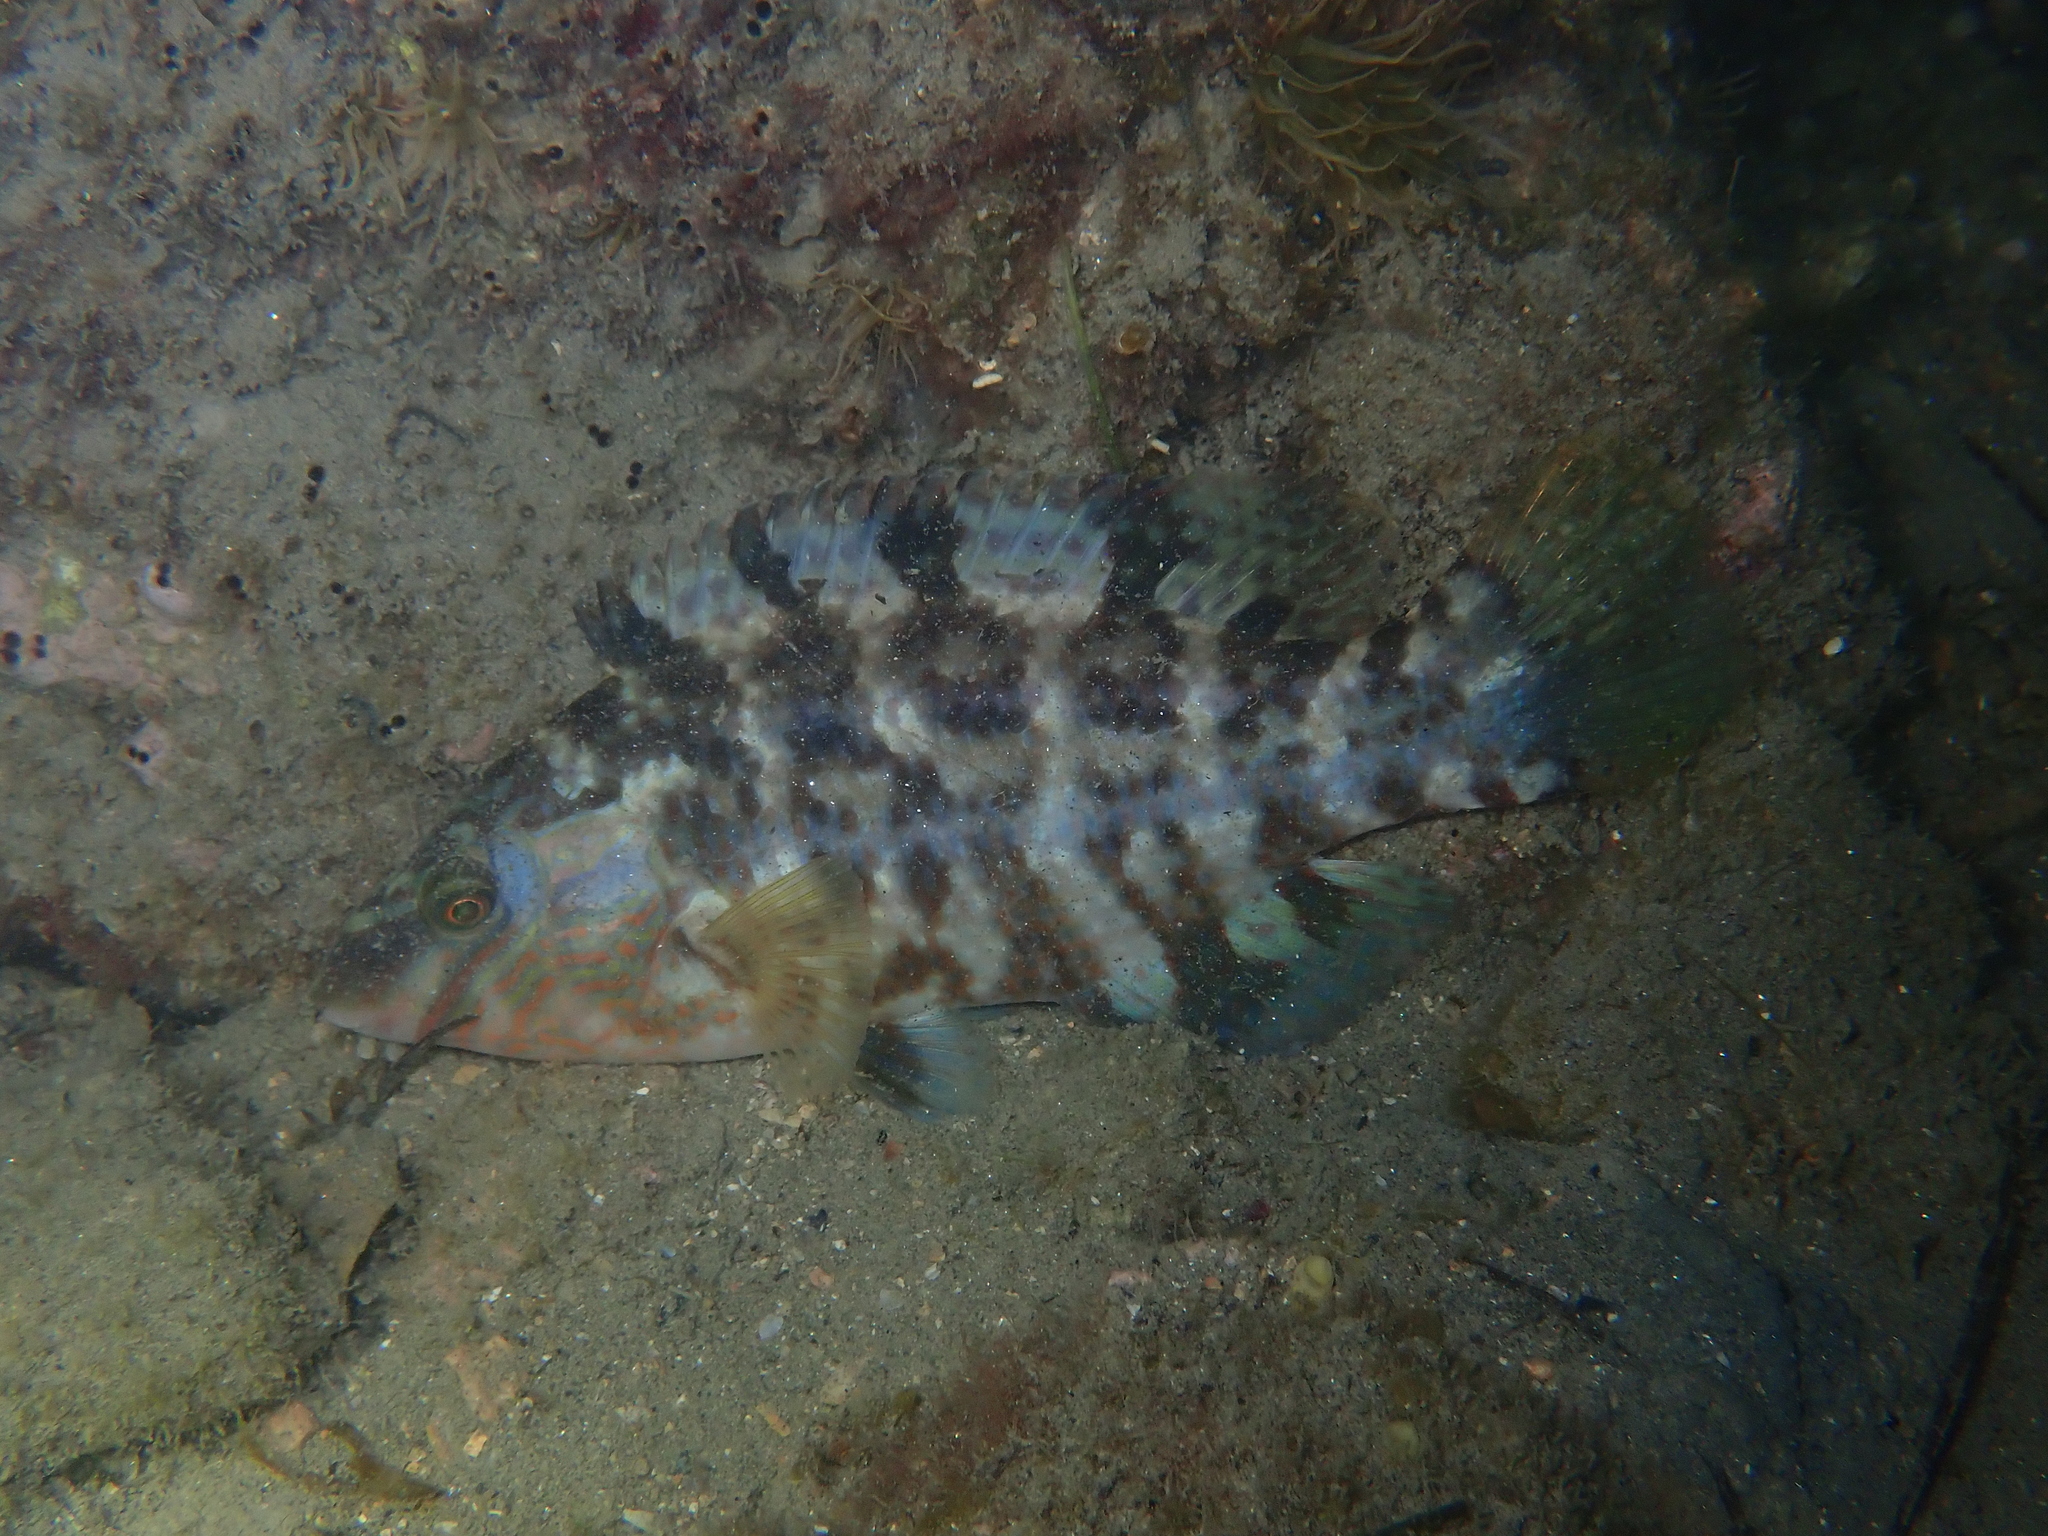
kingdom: Animalia
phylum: Chordata
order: Perciformes
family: Labridae
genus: Symphodus
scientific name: Symphodus melops
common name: Corkwing
